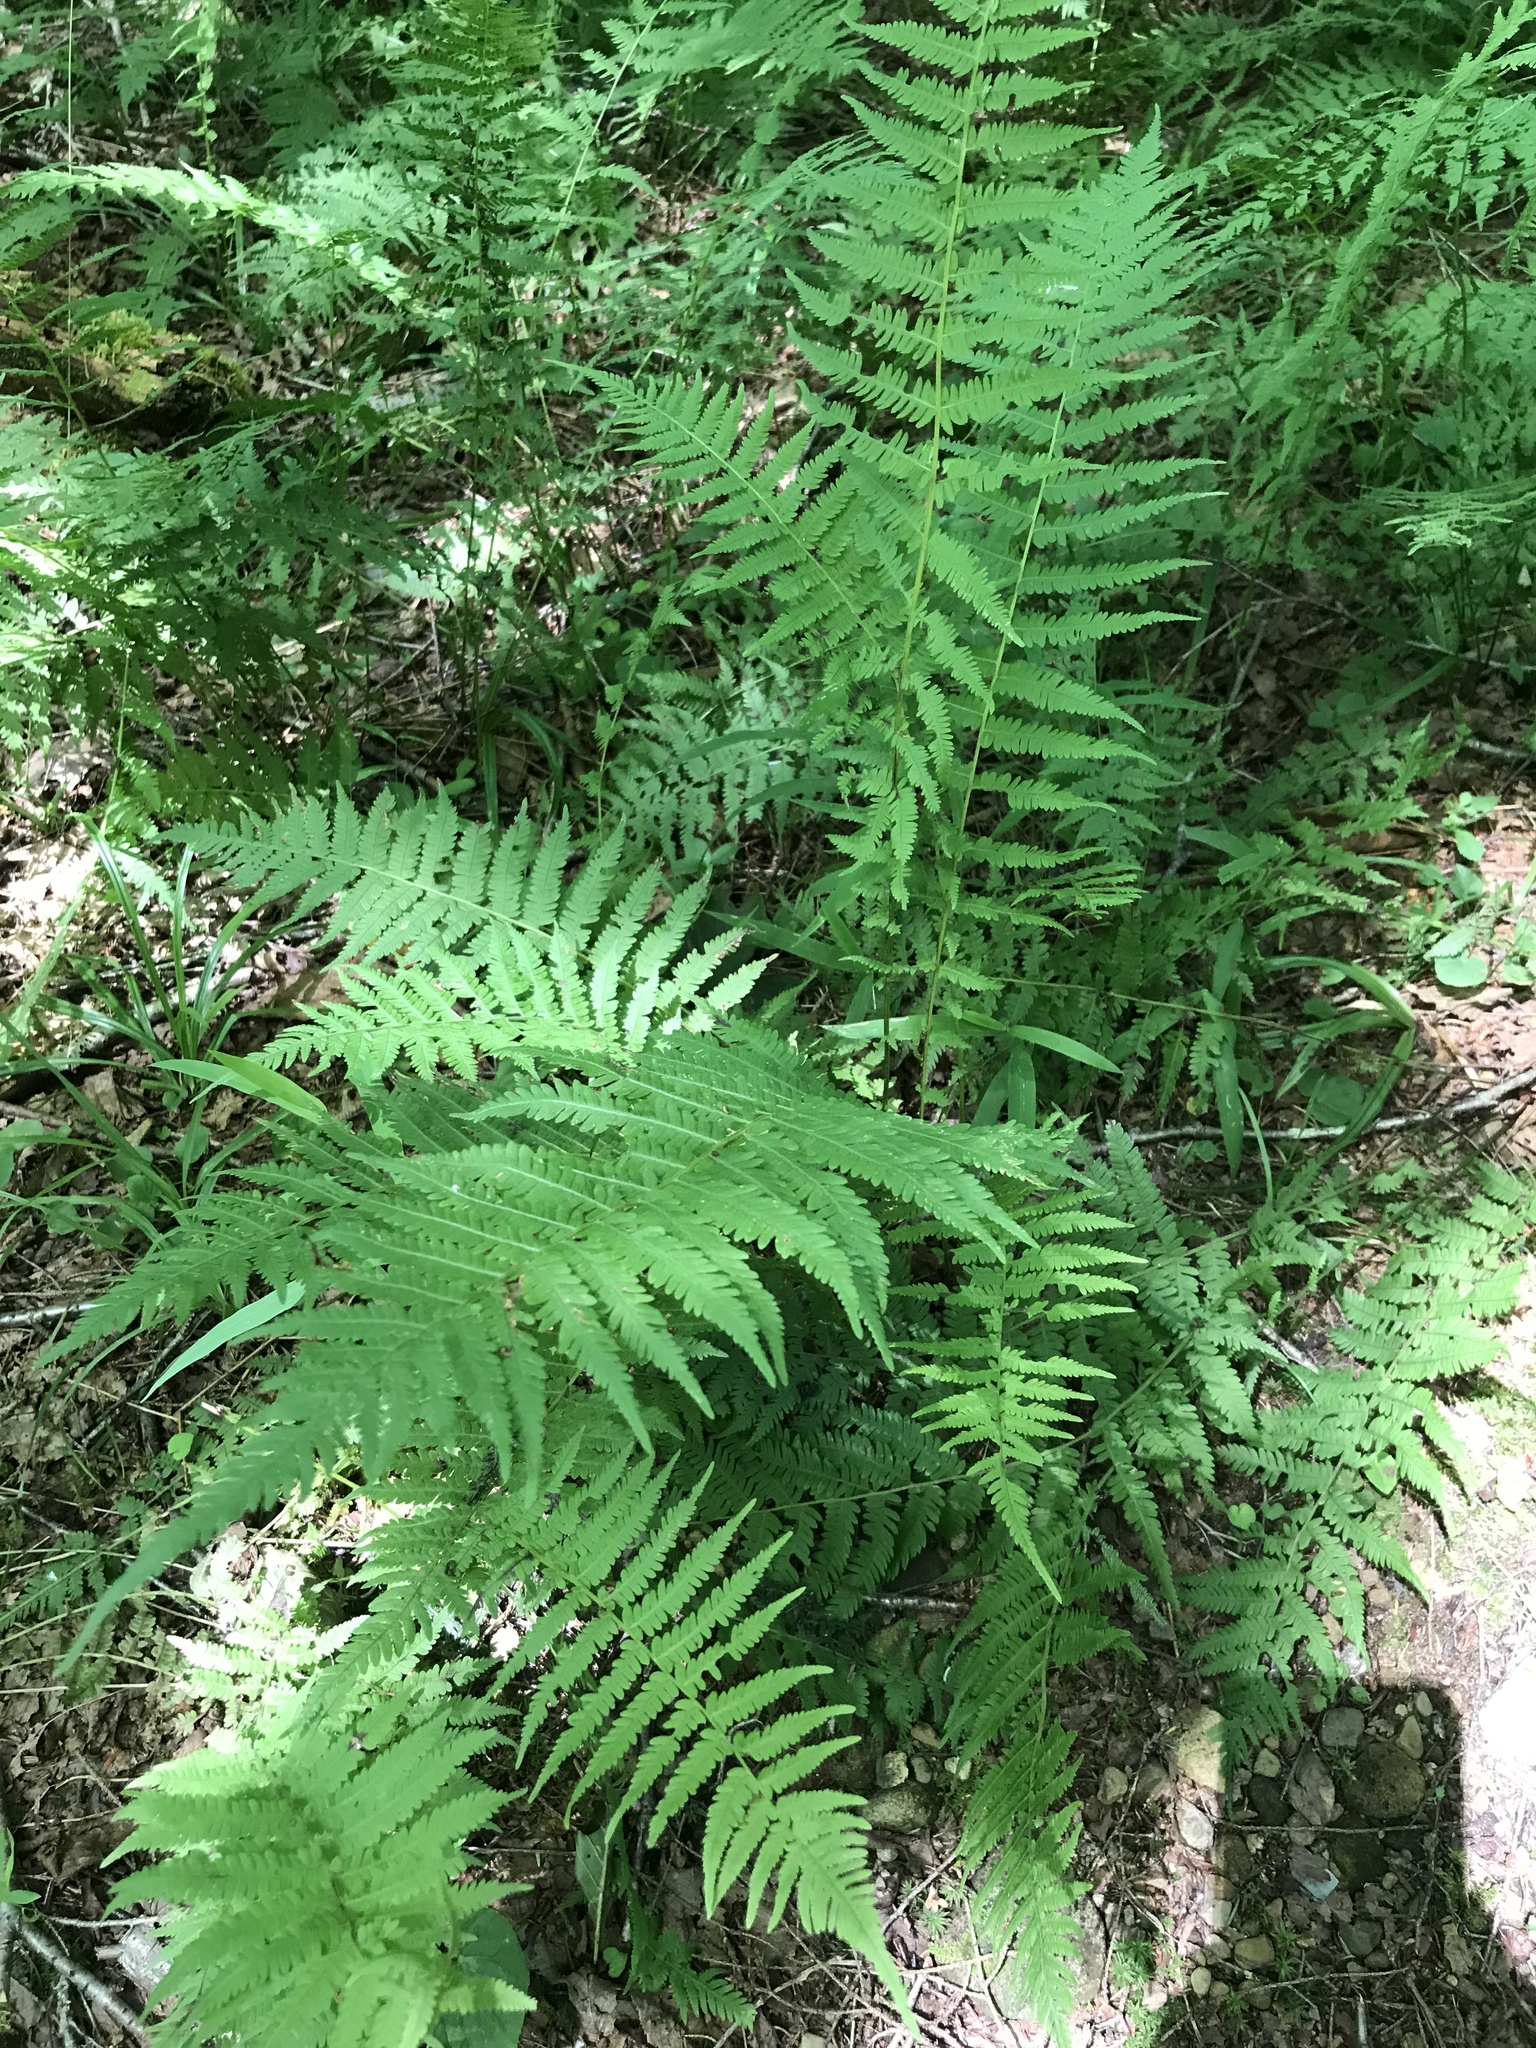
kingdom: Plantae
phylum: Tracheophyta
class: Polypodiopsida
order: Polypodiales
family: Thelypteridaceae
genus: Amauropelta
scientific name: Amauropelta noveboracensis
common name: New york fern
